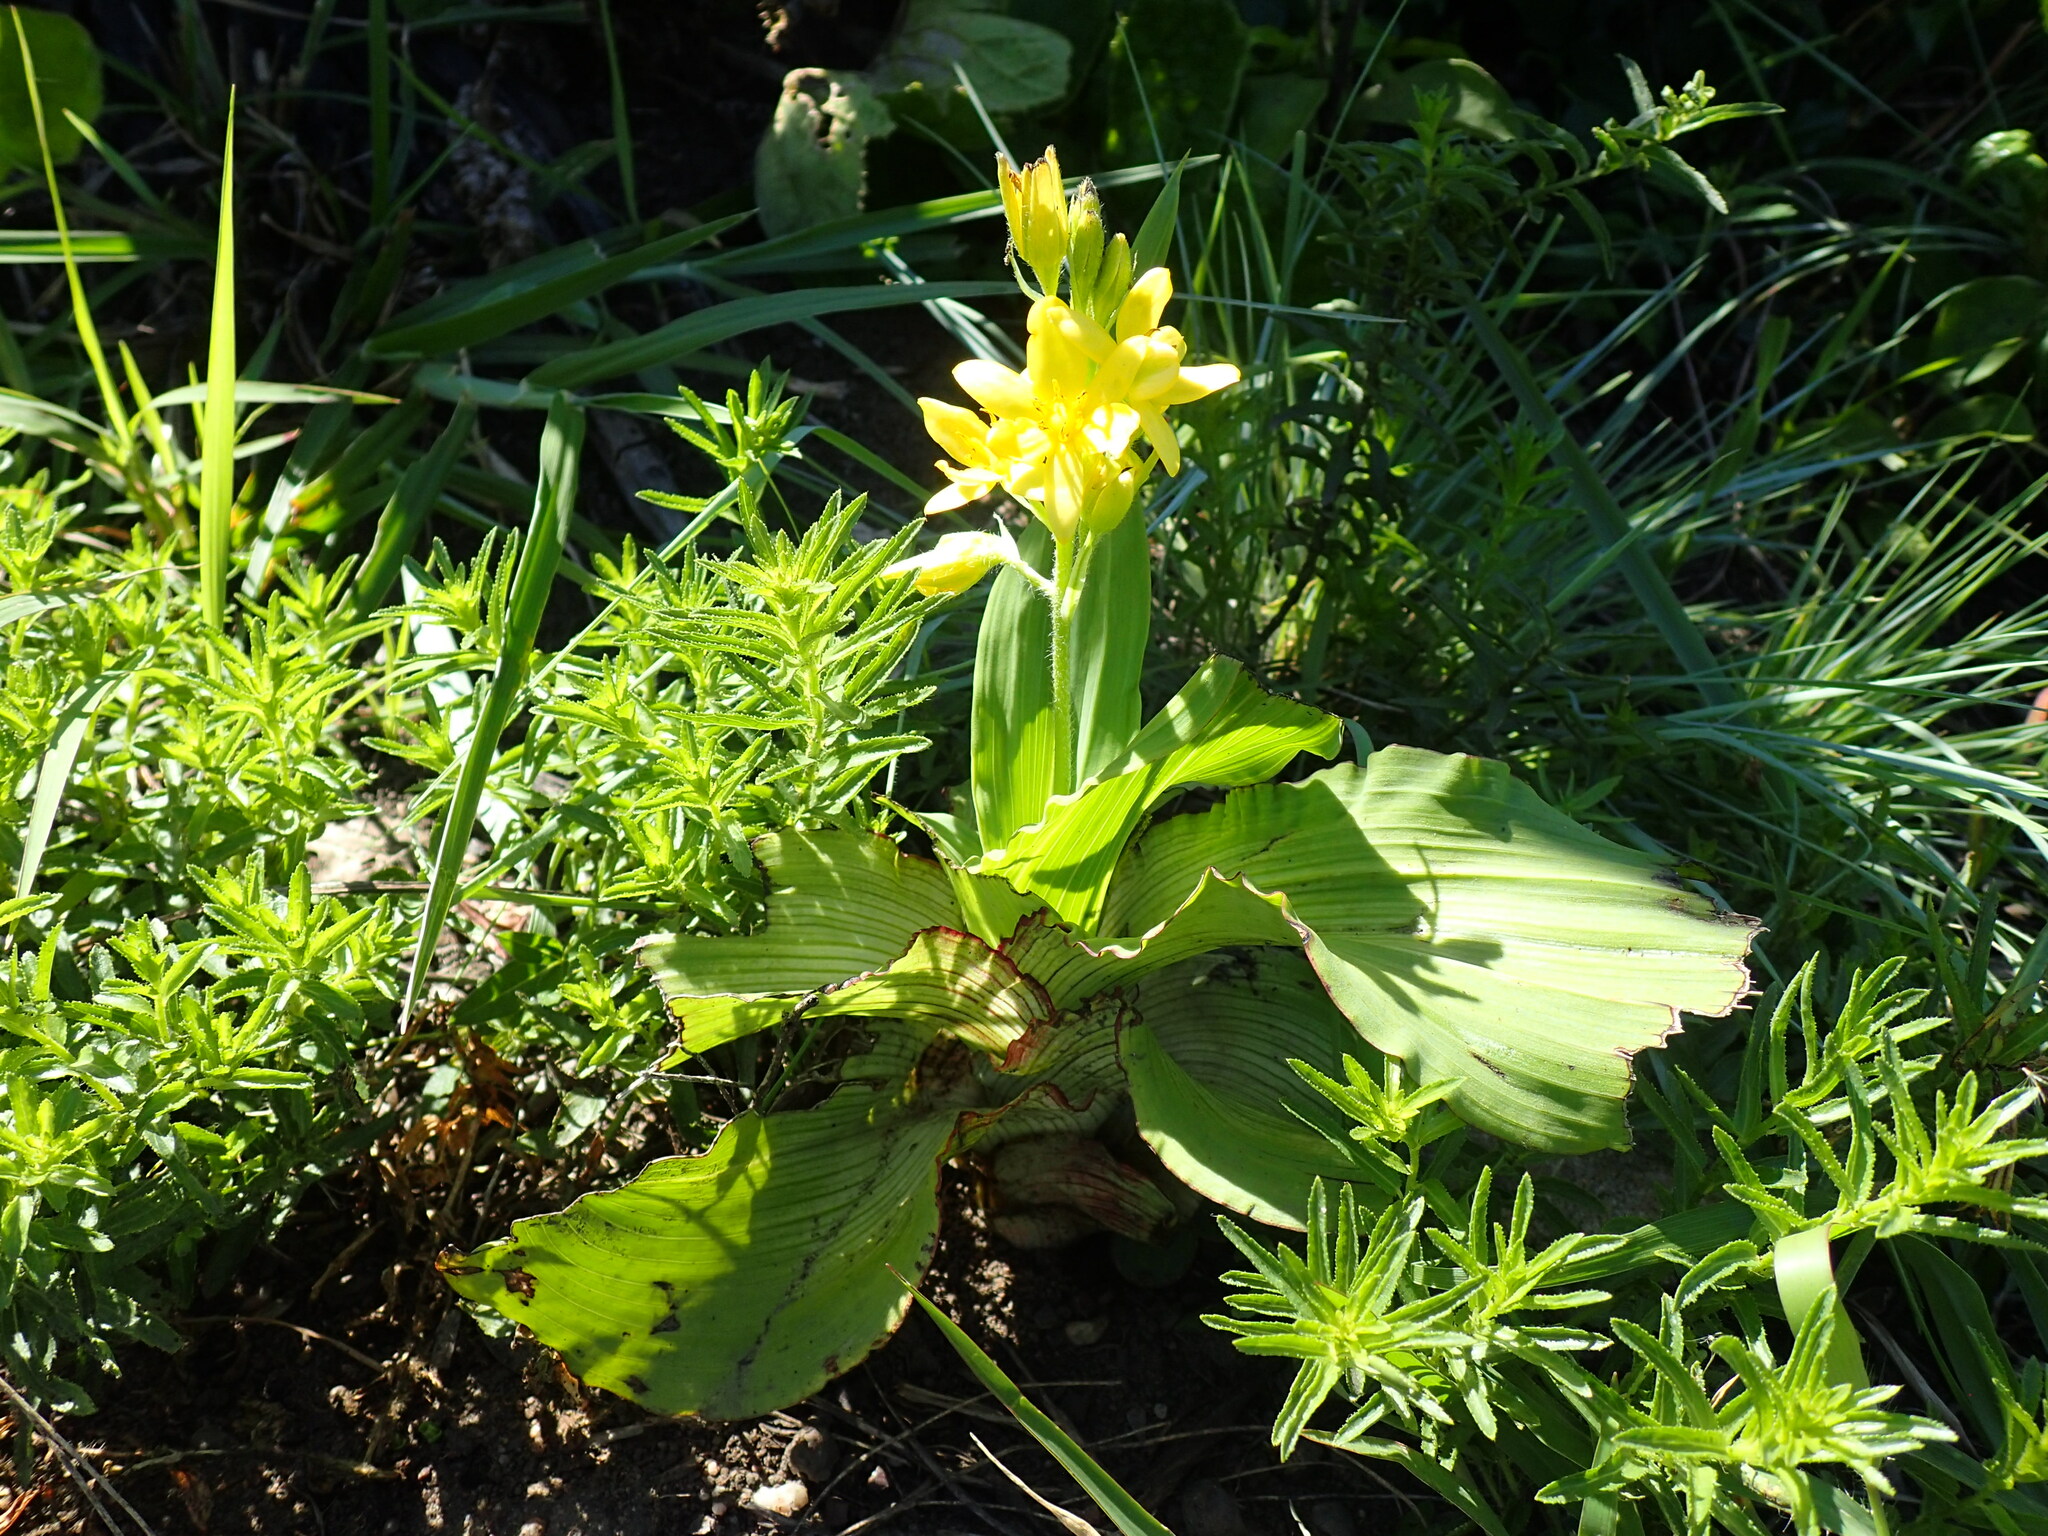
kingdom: Plantae
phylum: Tracheophyta
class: Liliopsida
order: Asparagales
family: Hypoxidaceae
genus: Hypoxis
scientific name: Hypoxis colchicifolia
